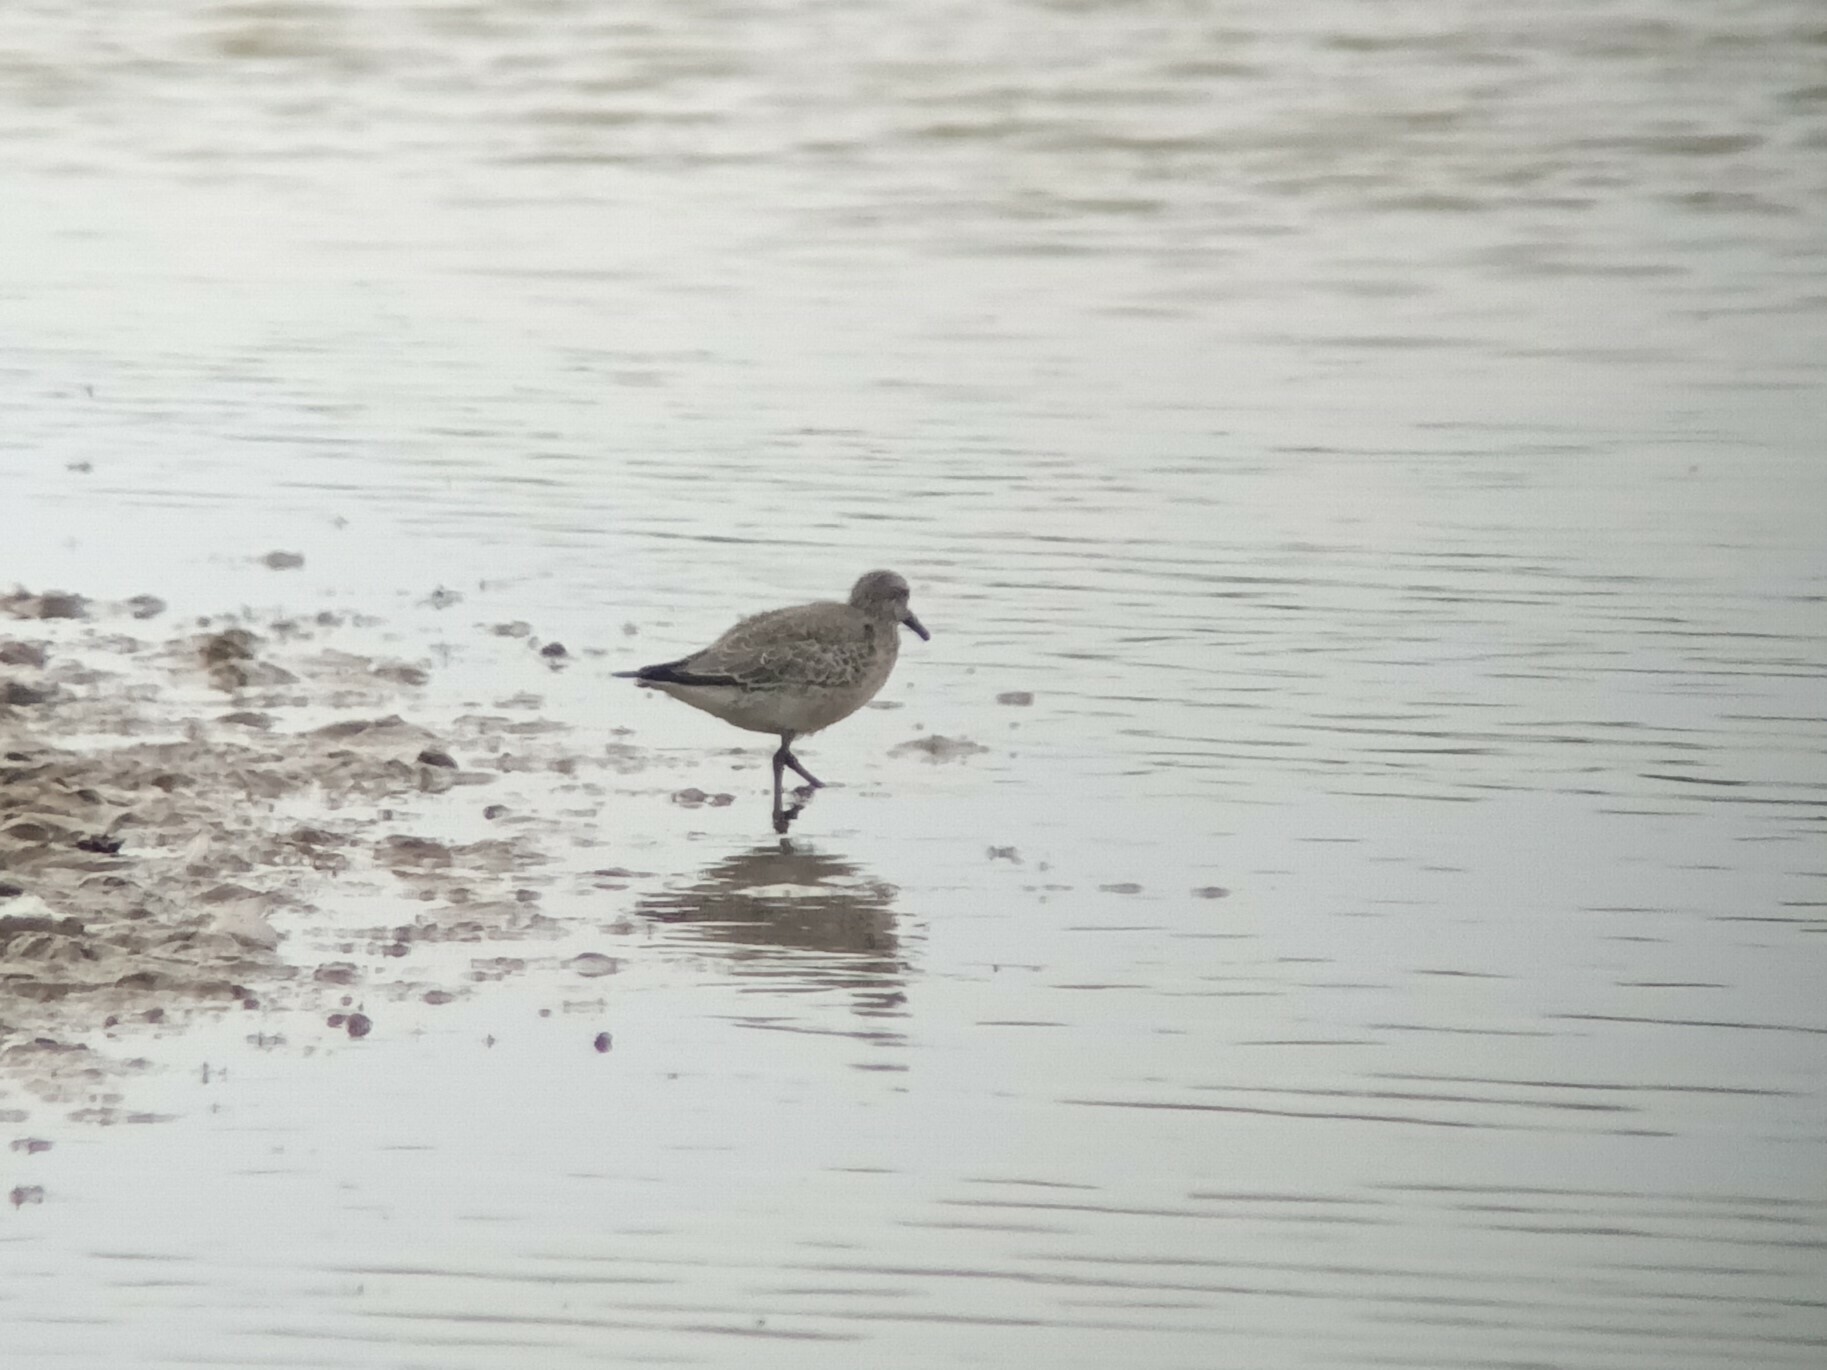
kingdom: Animalia
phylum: Chordata
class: Aves
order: Charadriiformes
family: Scolopacidae
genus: Calidris
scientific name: Calidris canutus
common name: Red knot
